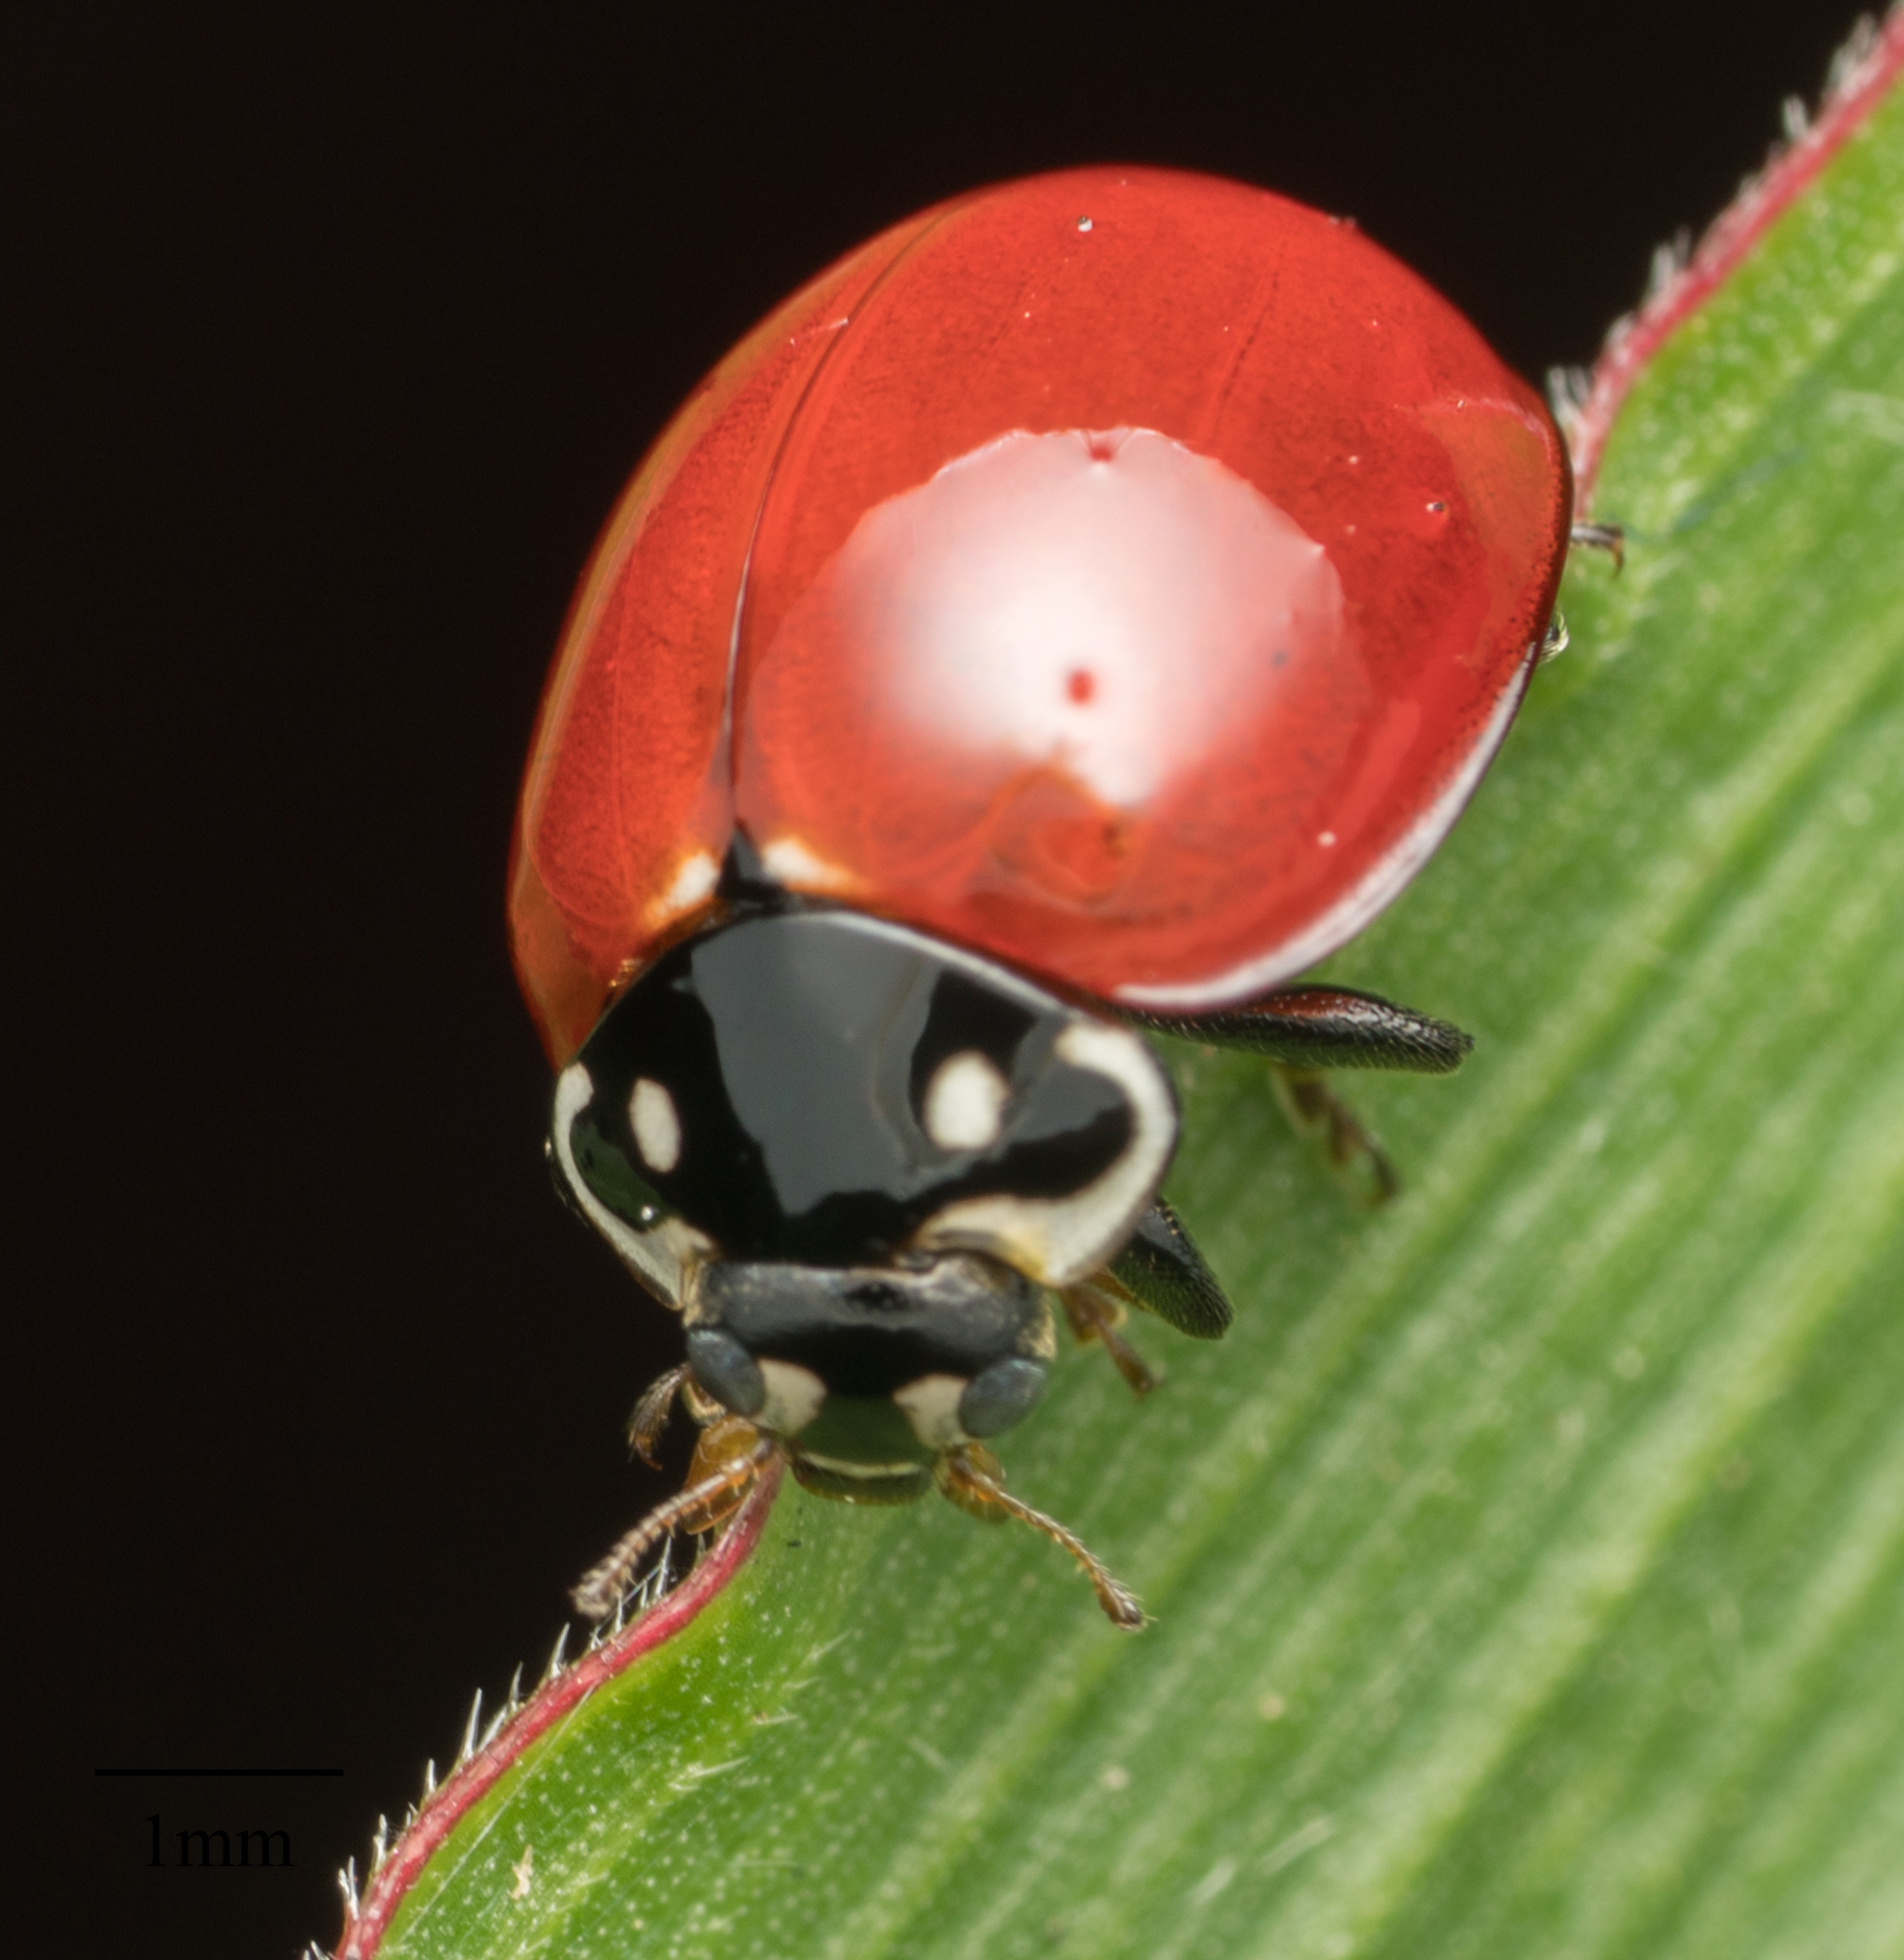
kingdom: Animalia
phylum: Arthropoda
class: Insecta
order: Coleoptera
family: Coccinellidae
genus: Cycloneda
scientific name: Cycloneda sanguinea
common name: Ladybird beetle
